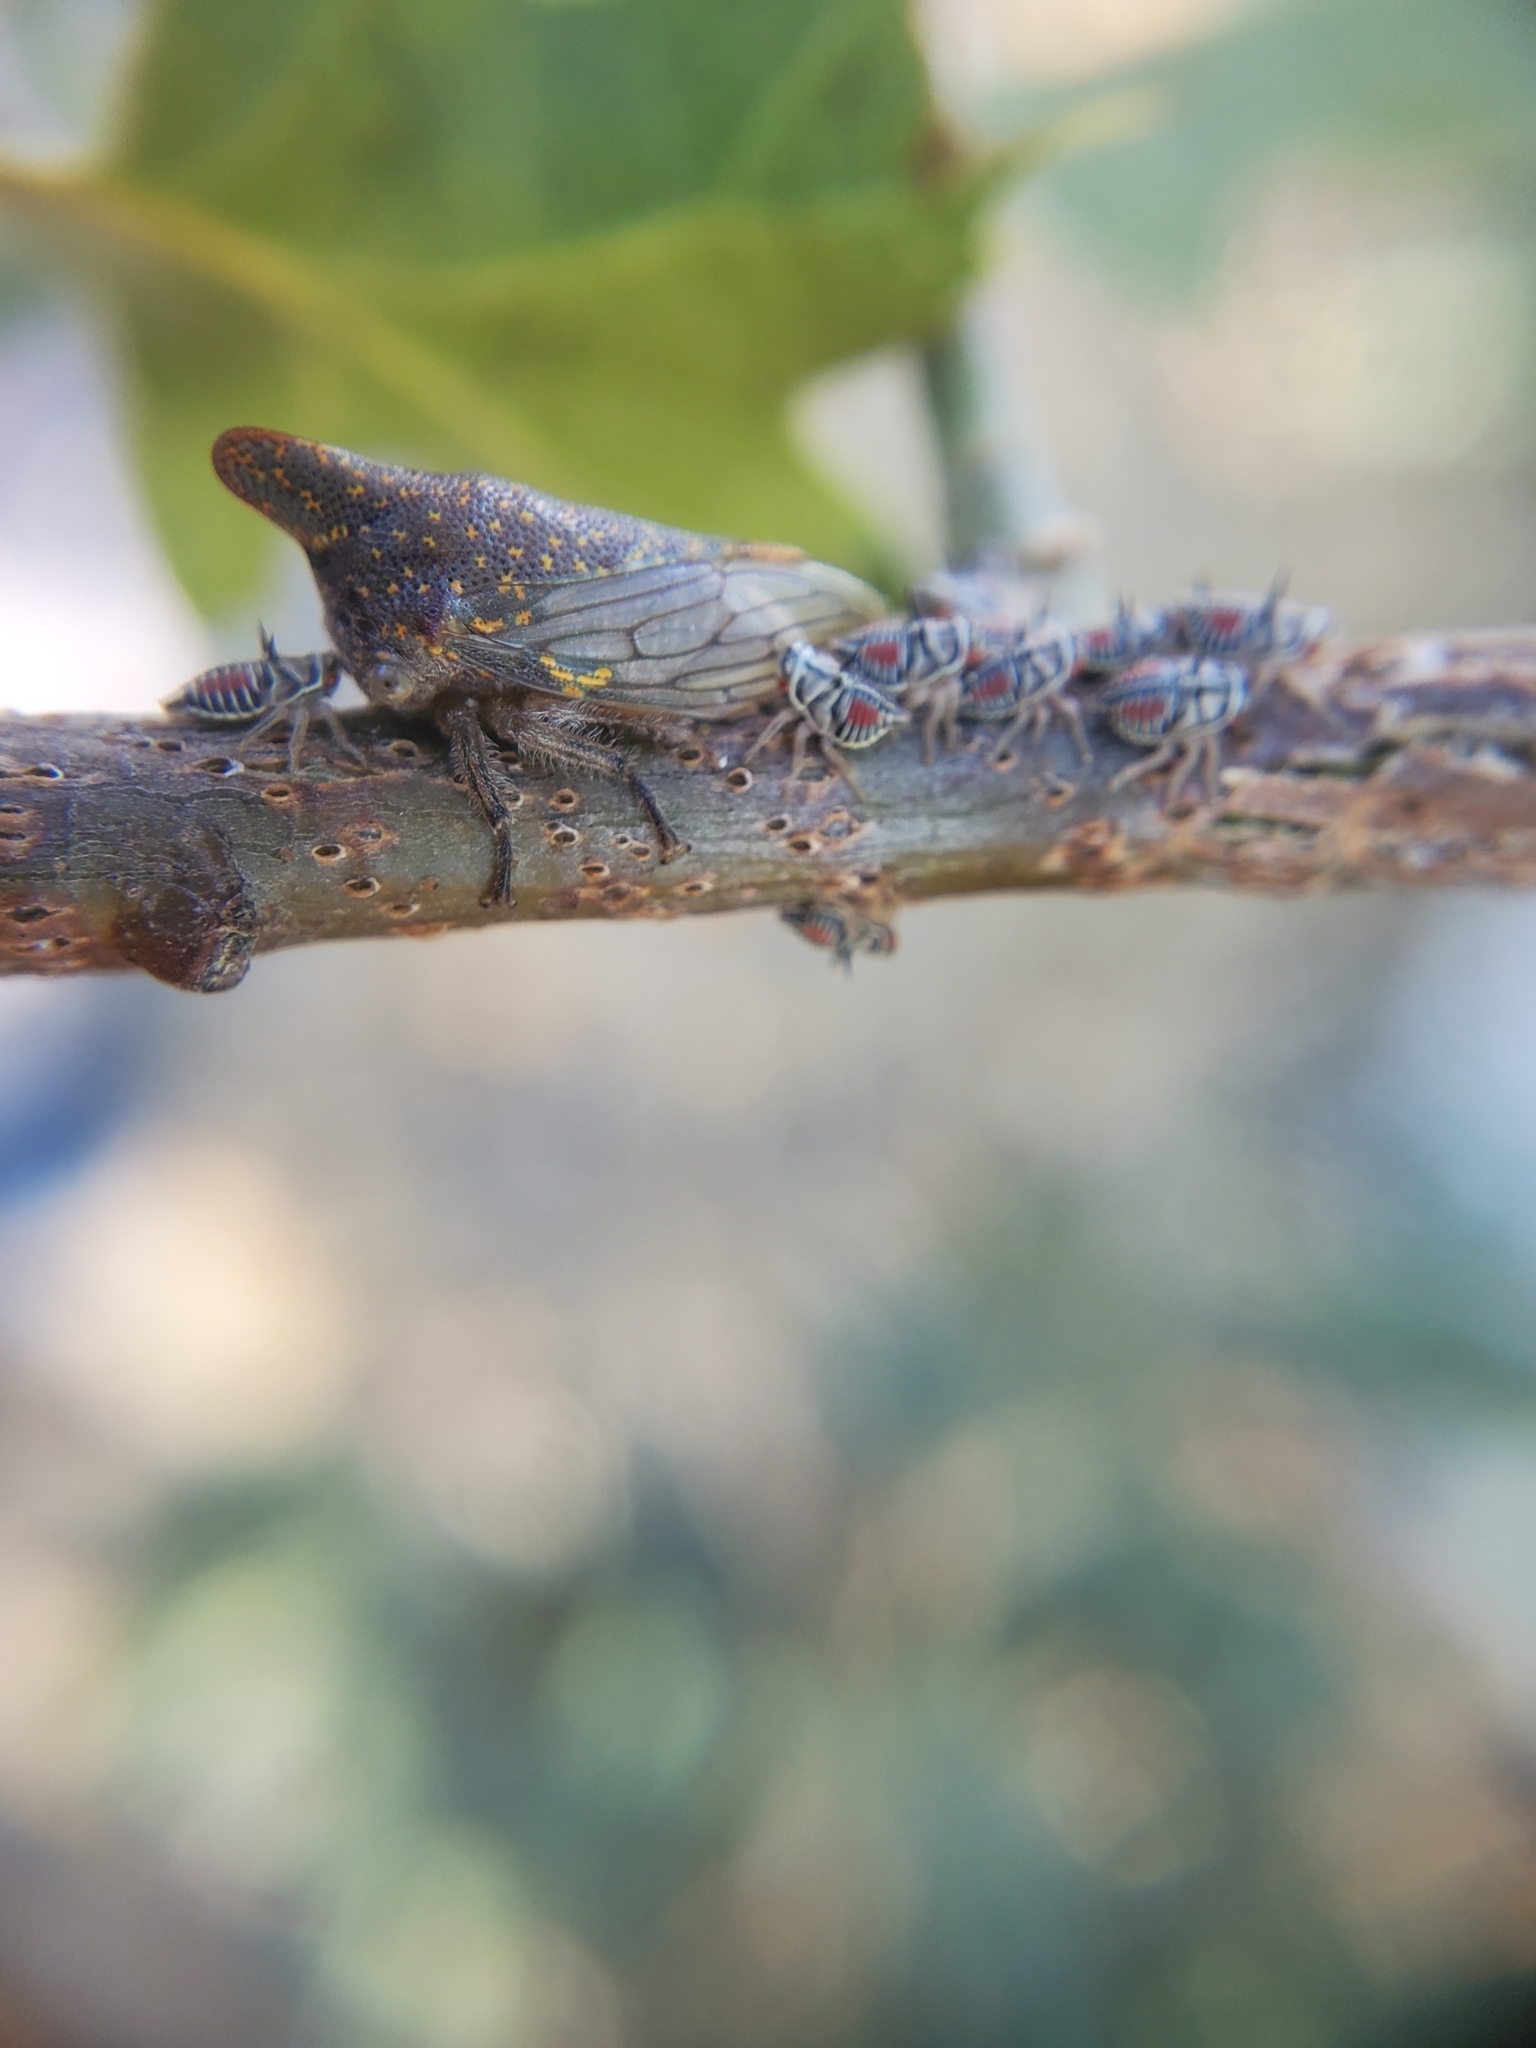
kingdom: Animalia
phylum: Arthropoda
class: Insecta
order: Hemiptera
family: Membracidae
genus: Platycotis
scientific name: Platycotis vittatus
